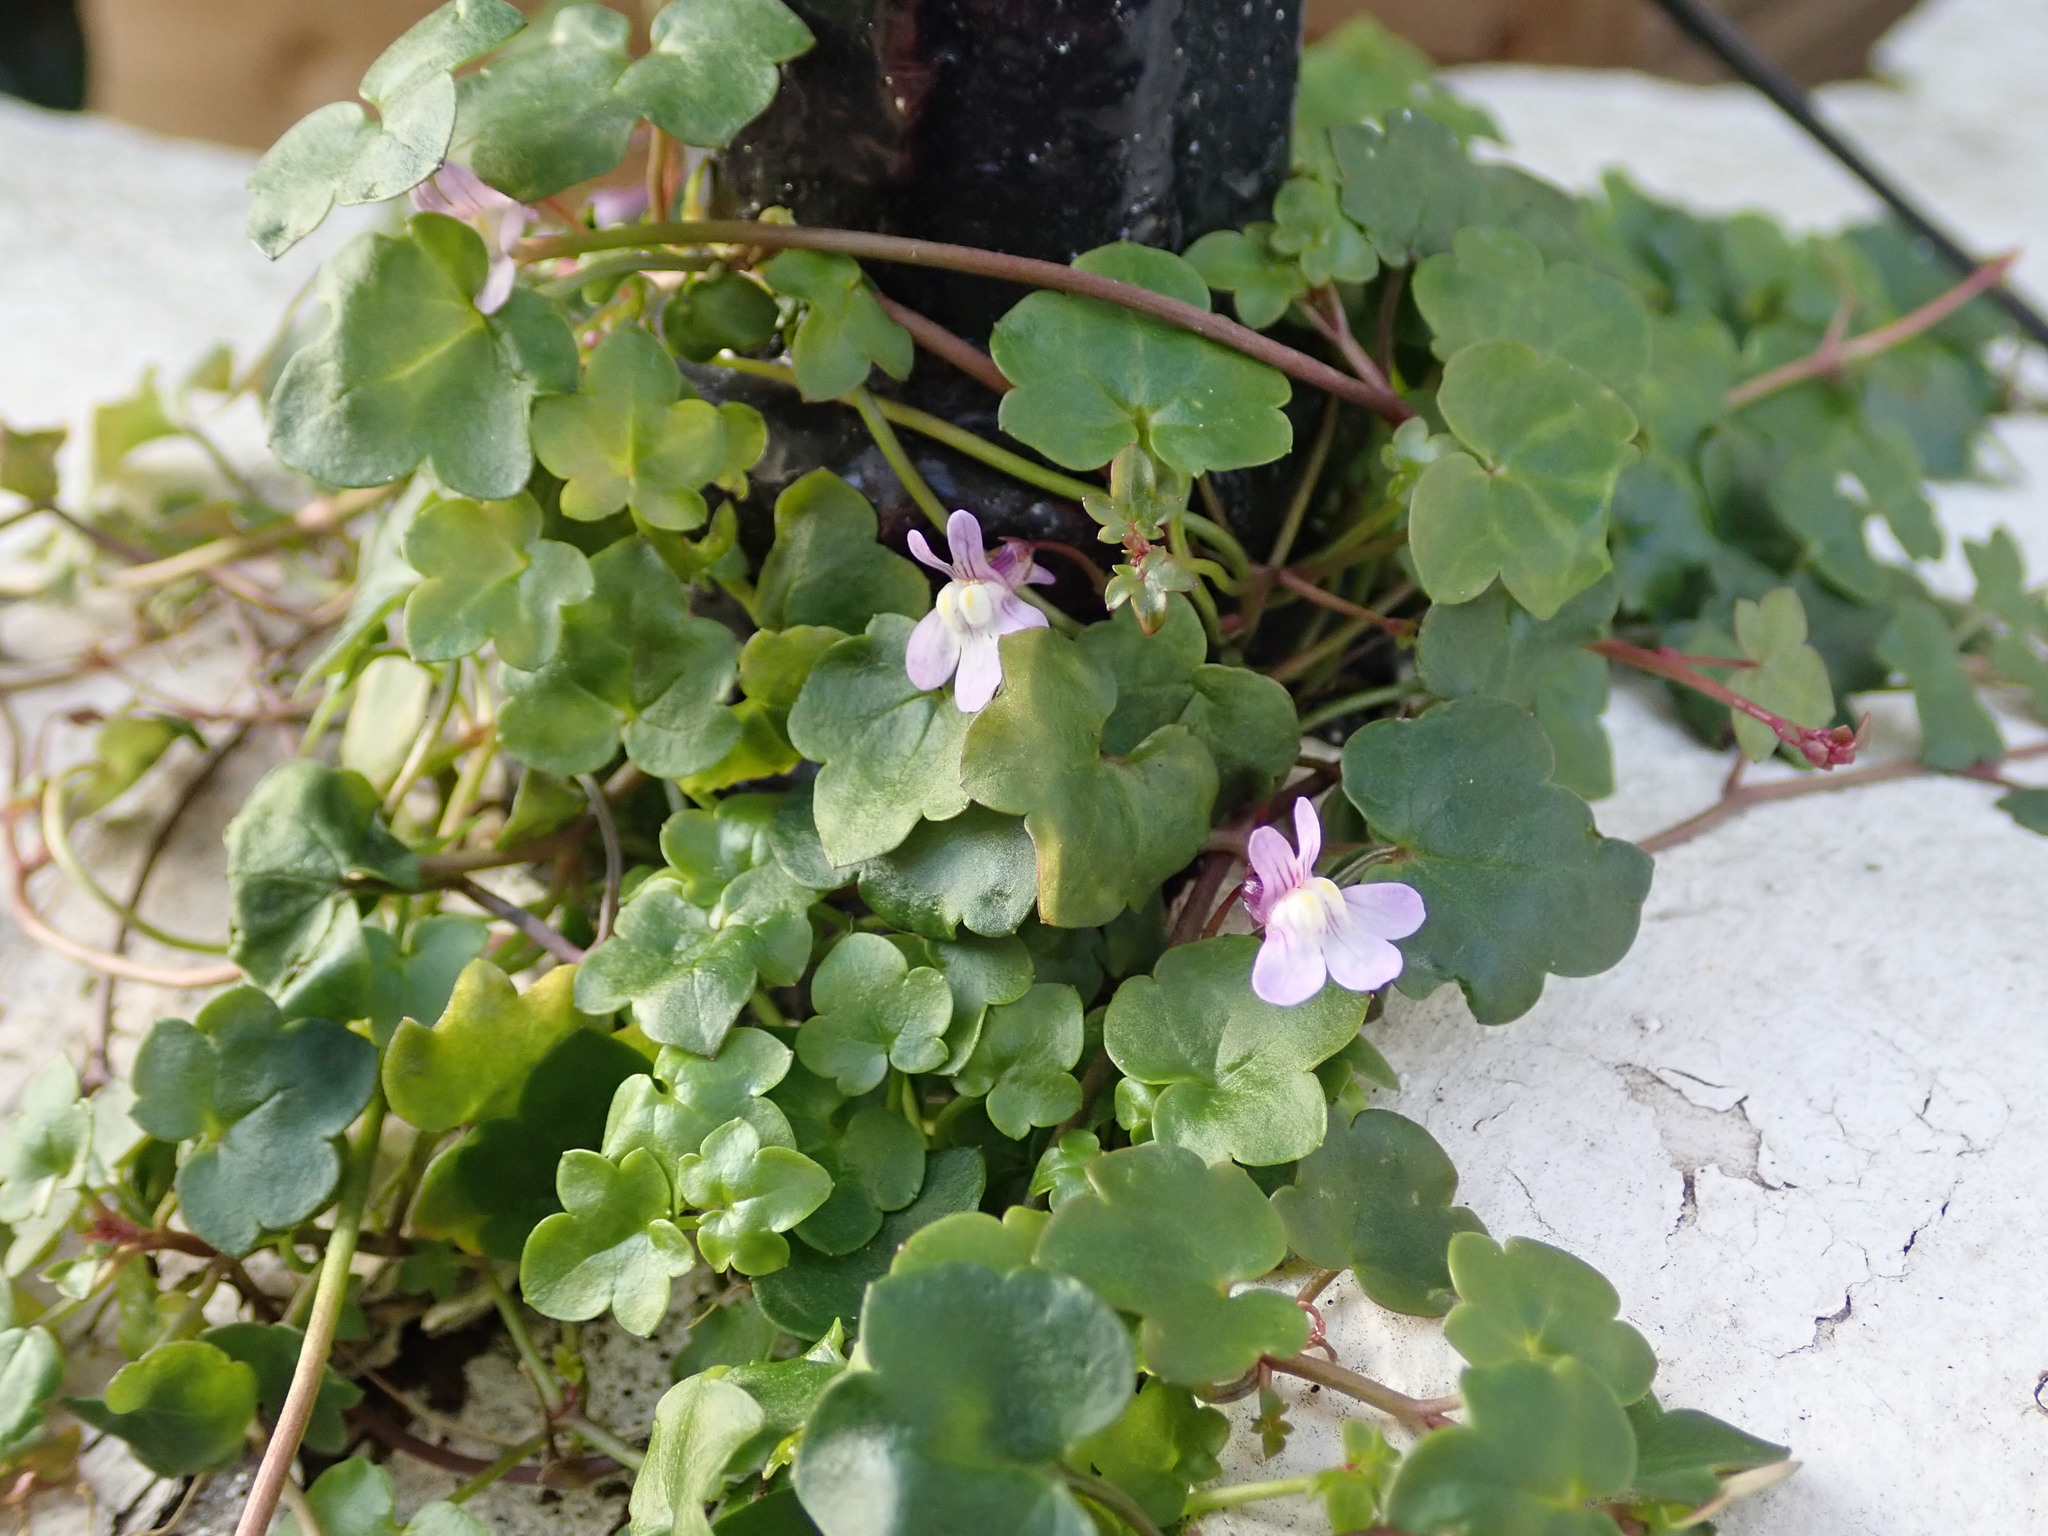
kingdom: Plantae
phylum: Tracheophyta
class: Magnoliopsida
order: Lamiales
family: Plantaginaceae
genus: Cymbalaria
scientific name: Cymbalaria muralis
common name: Ivy-leaved toadflax
